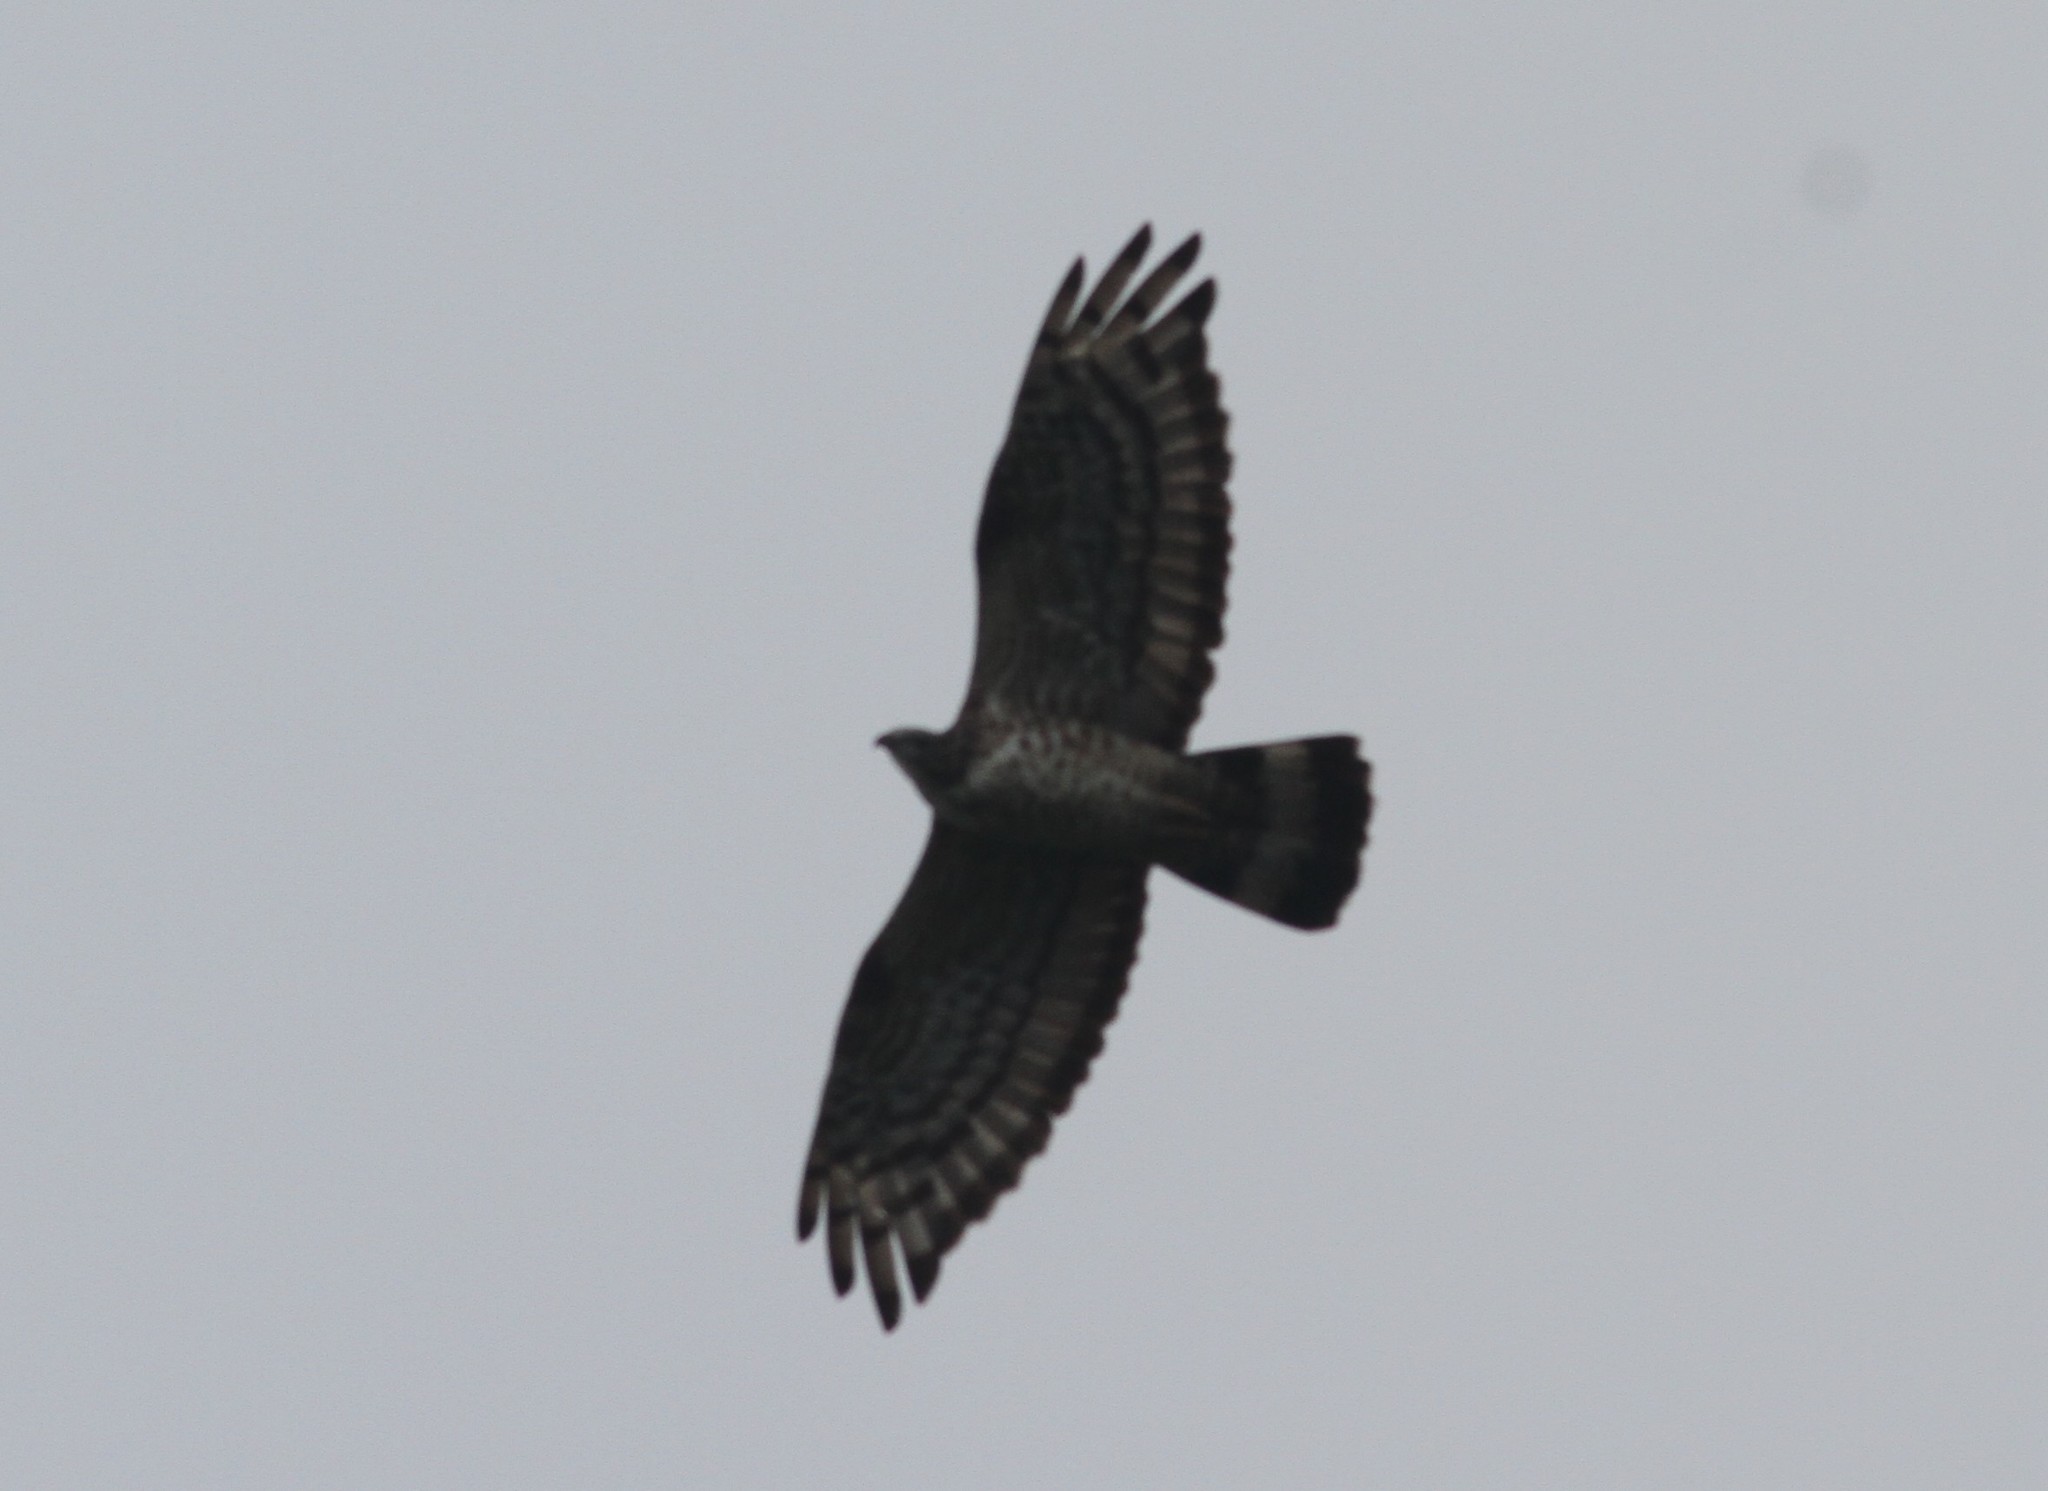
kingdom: Animalia
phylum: Chordata
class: Aves
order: Accipitriformes
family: Accipitridae
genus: Pernis
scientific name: Pernis ptilorhynchus
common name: Crested honey buzzard
